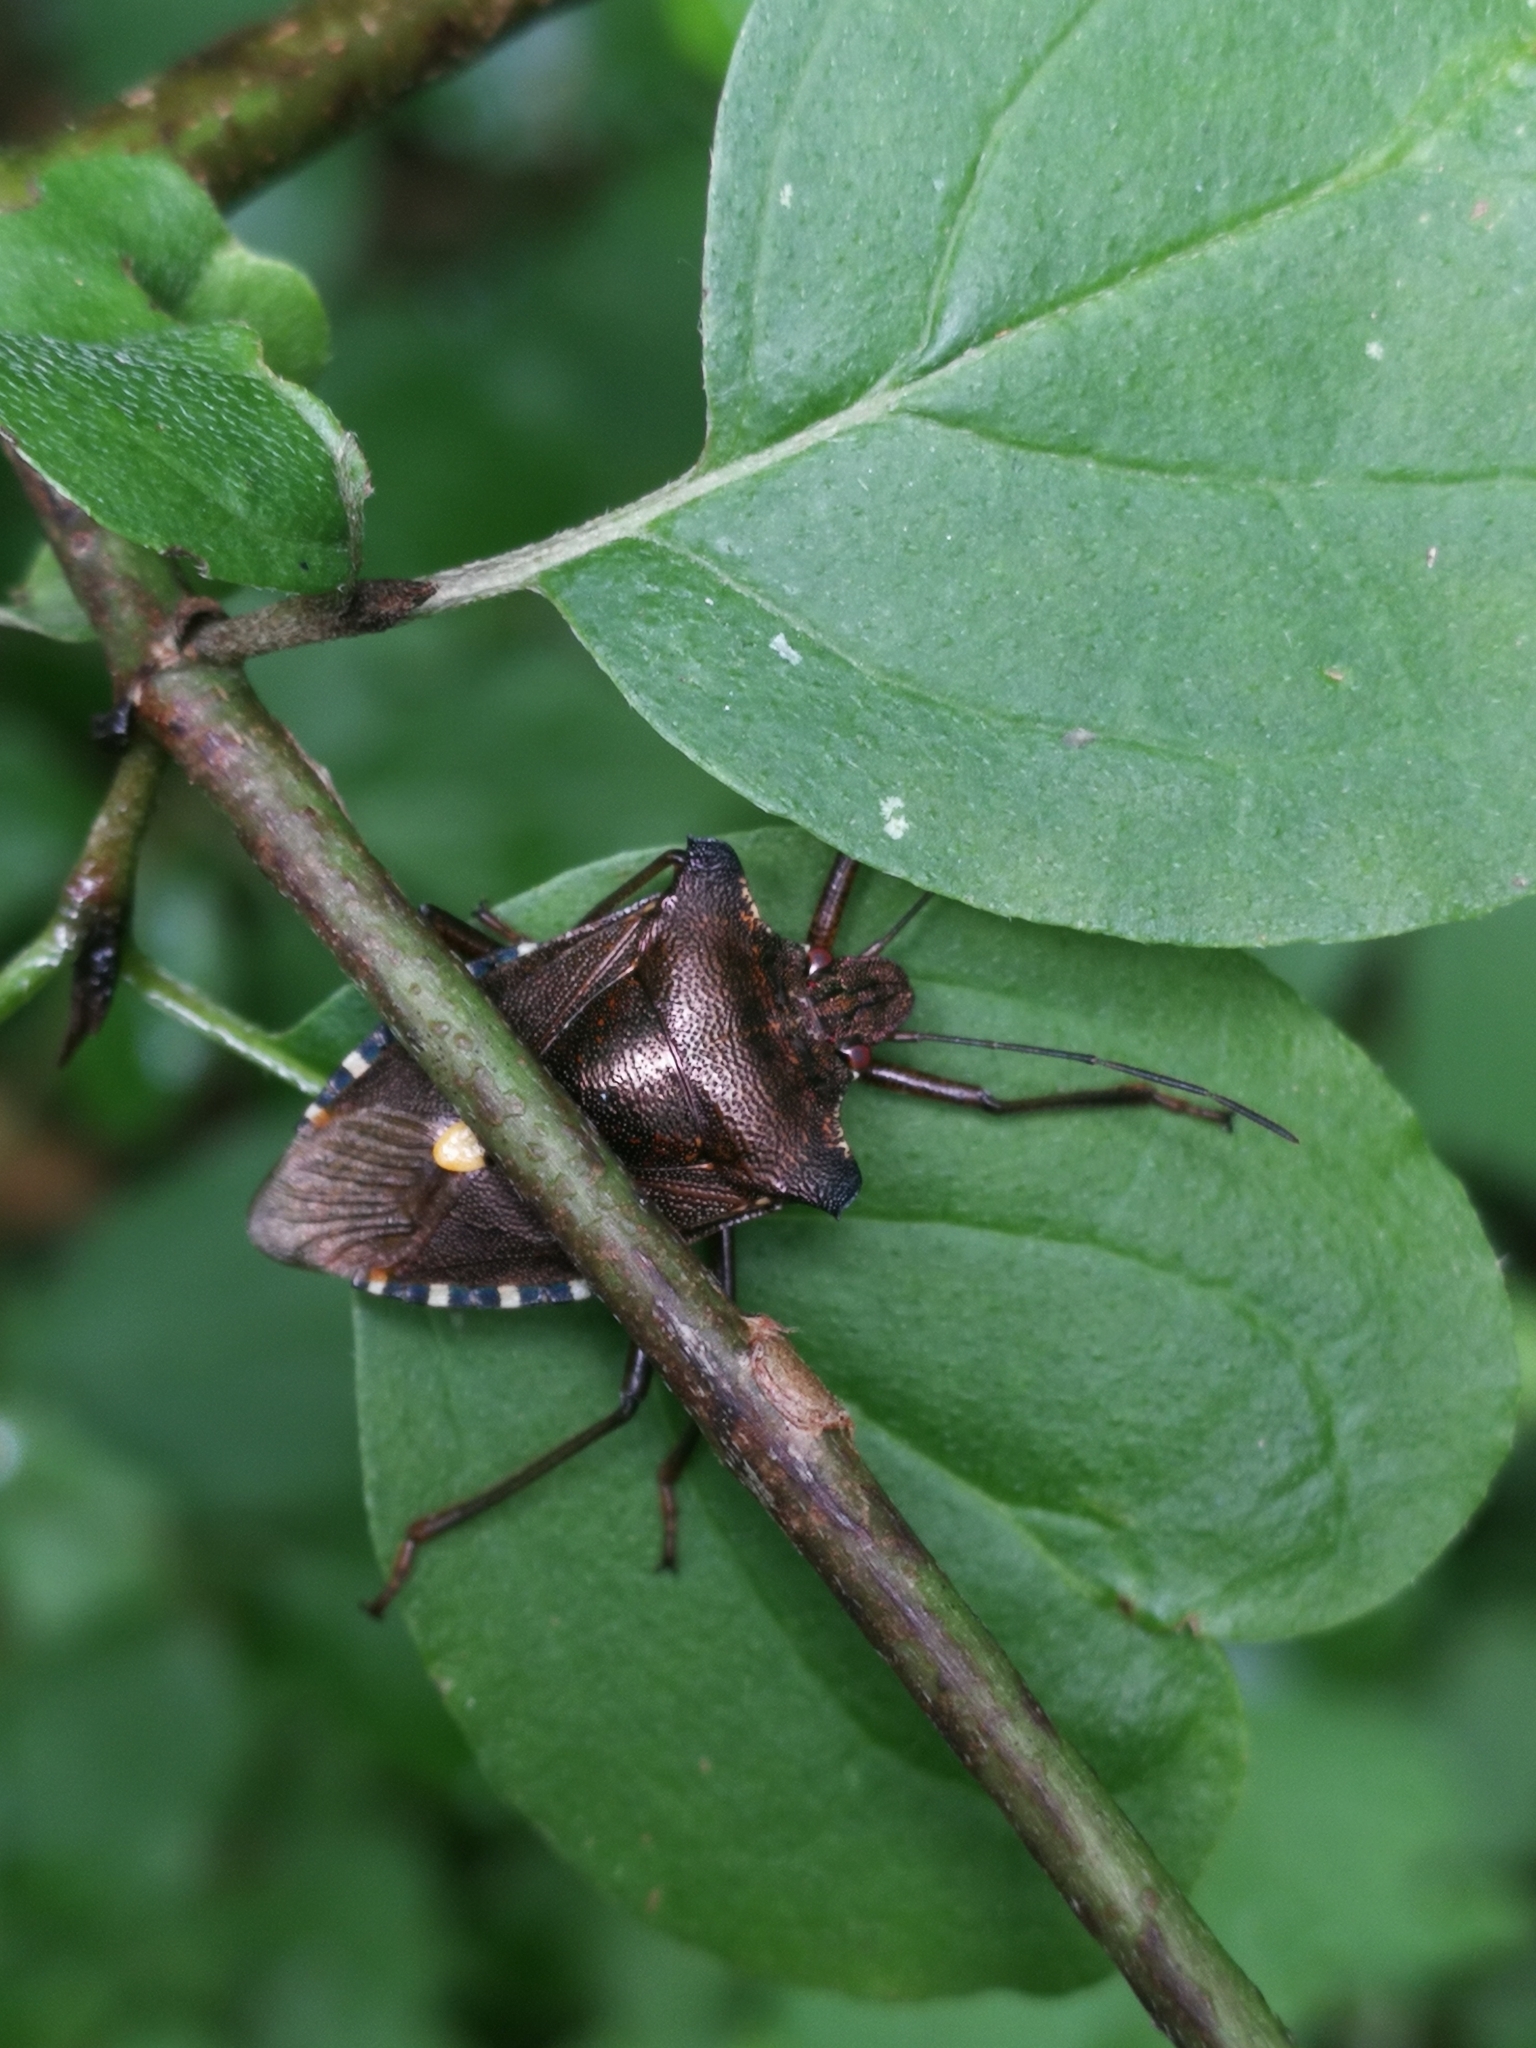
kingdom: Animalia
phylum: Arthropoda
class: Insecta
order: Hemiptera
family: Pentatomidae
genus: Pentatoma
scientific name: Pentatoma rufipes
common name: Forest bug
